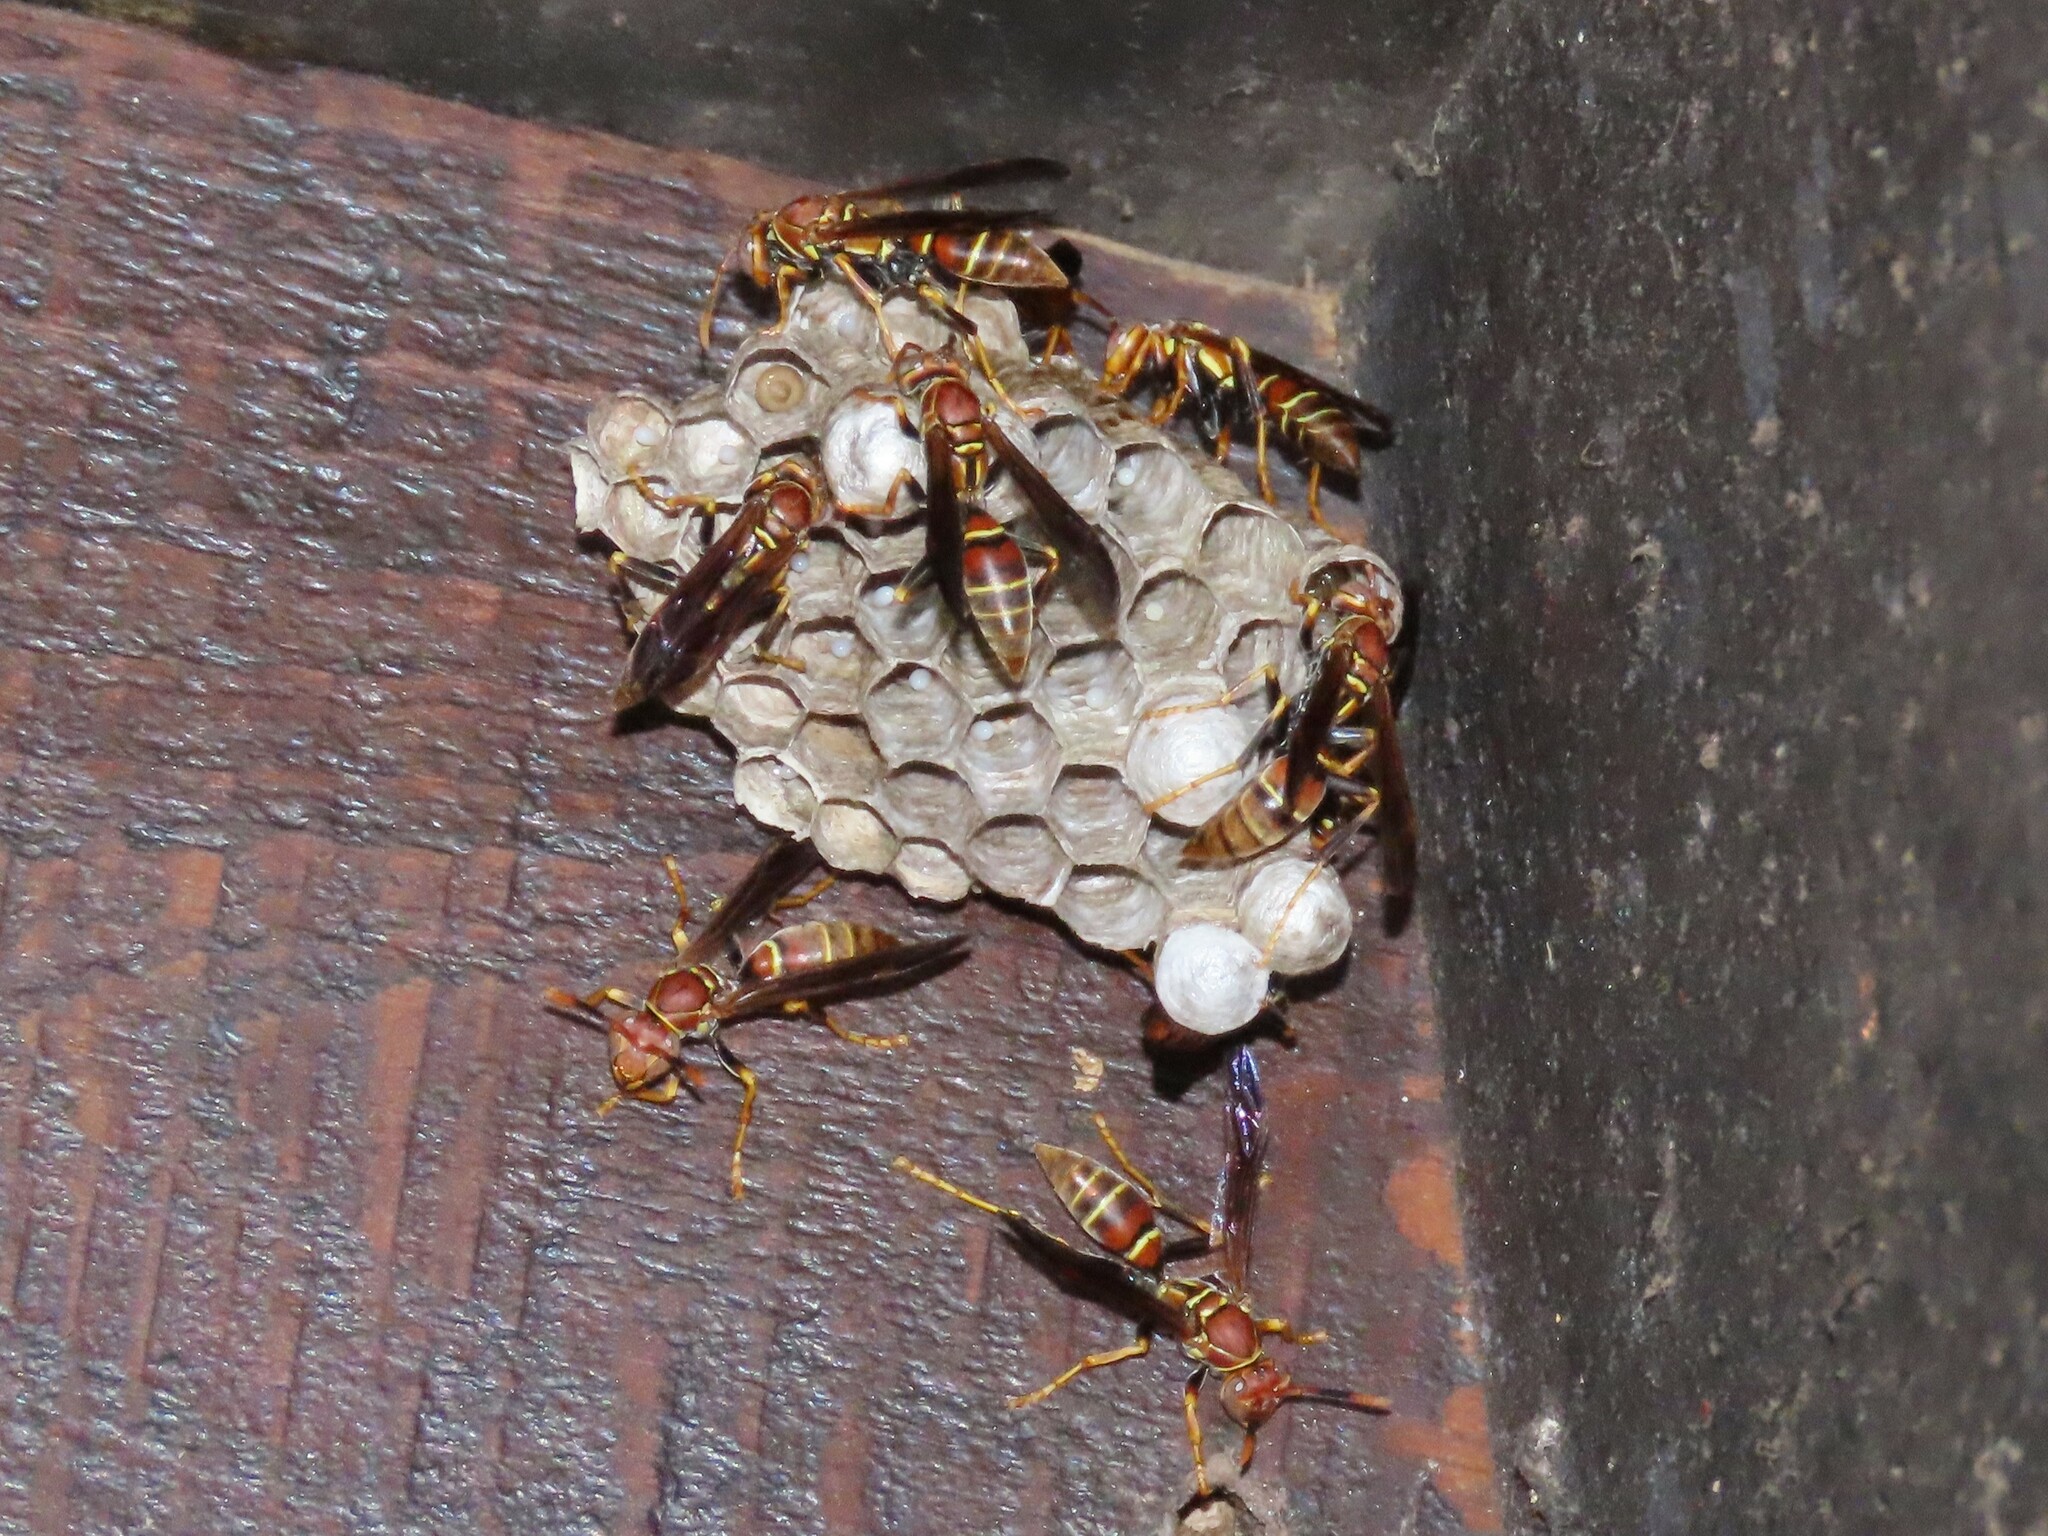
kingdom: Animalia
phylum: Arthropoda
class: Insecta
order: Hymenoptera
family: Eumenidae
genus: Polistes
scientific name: Polistes bahamensis
